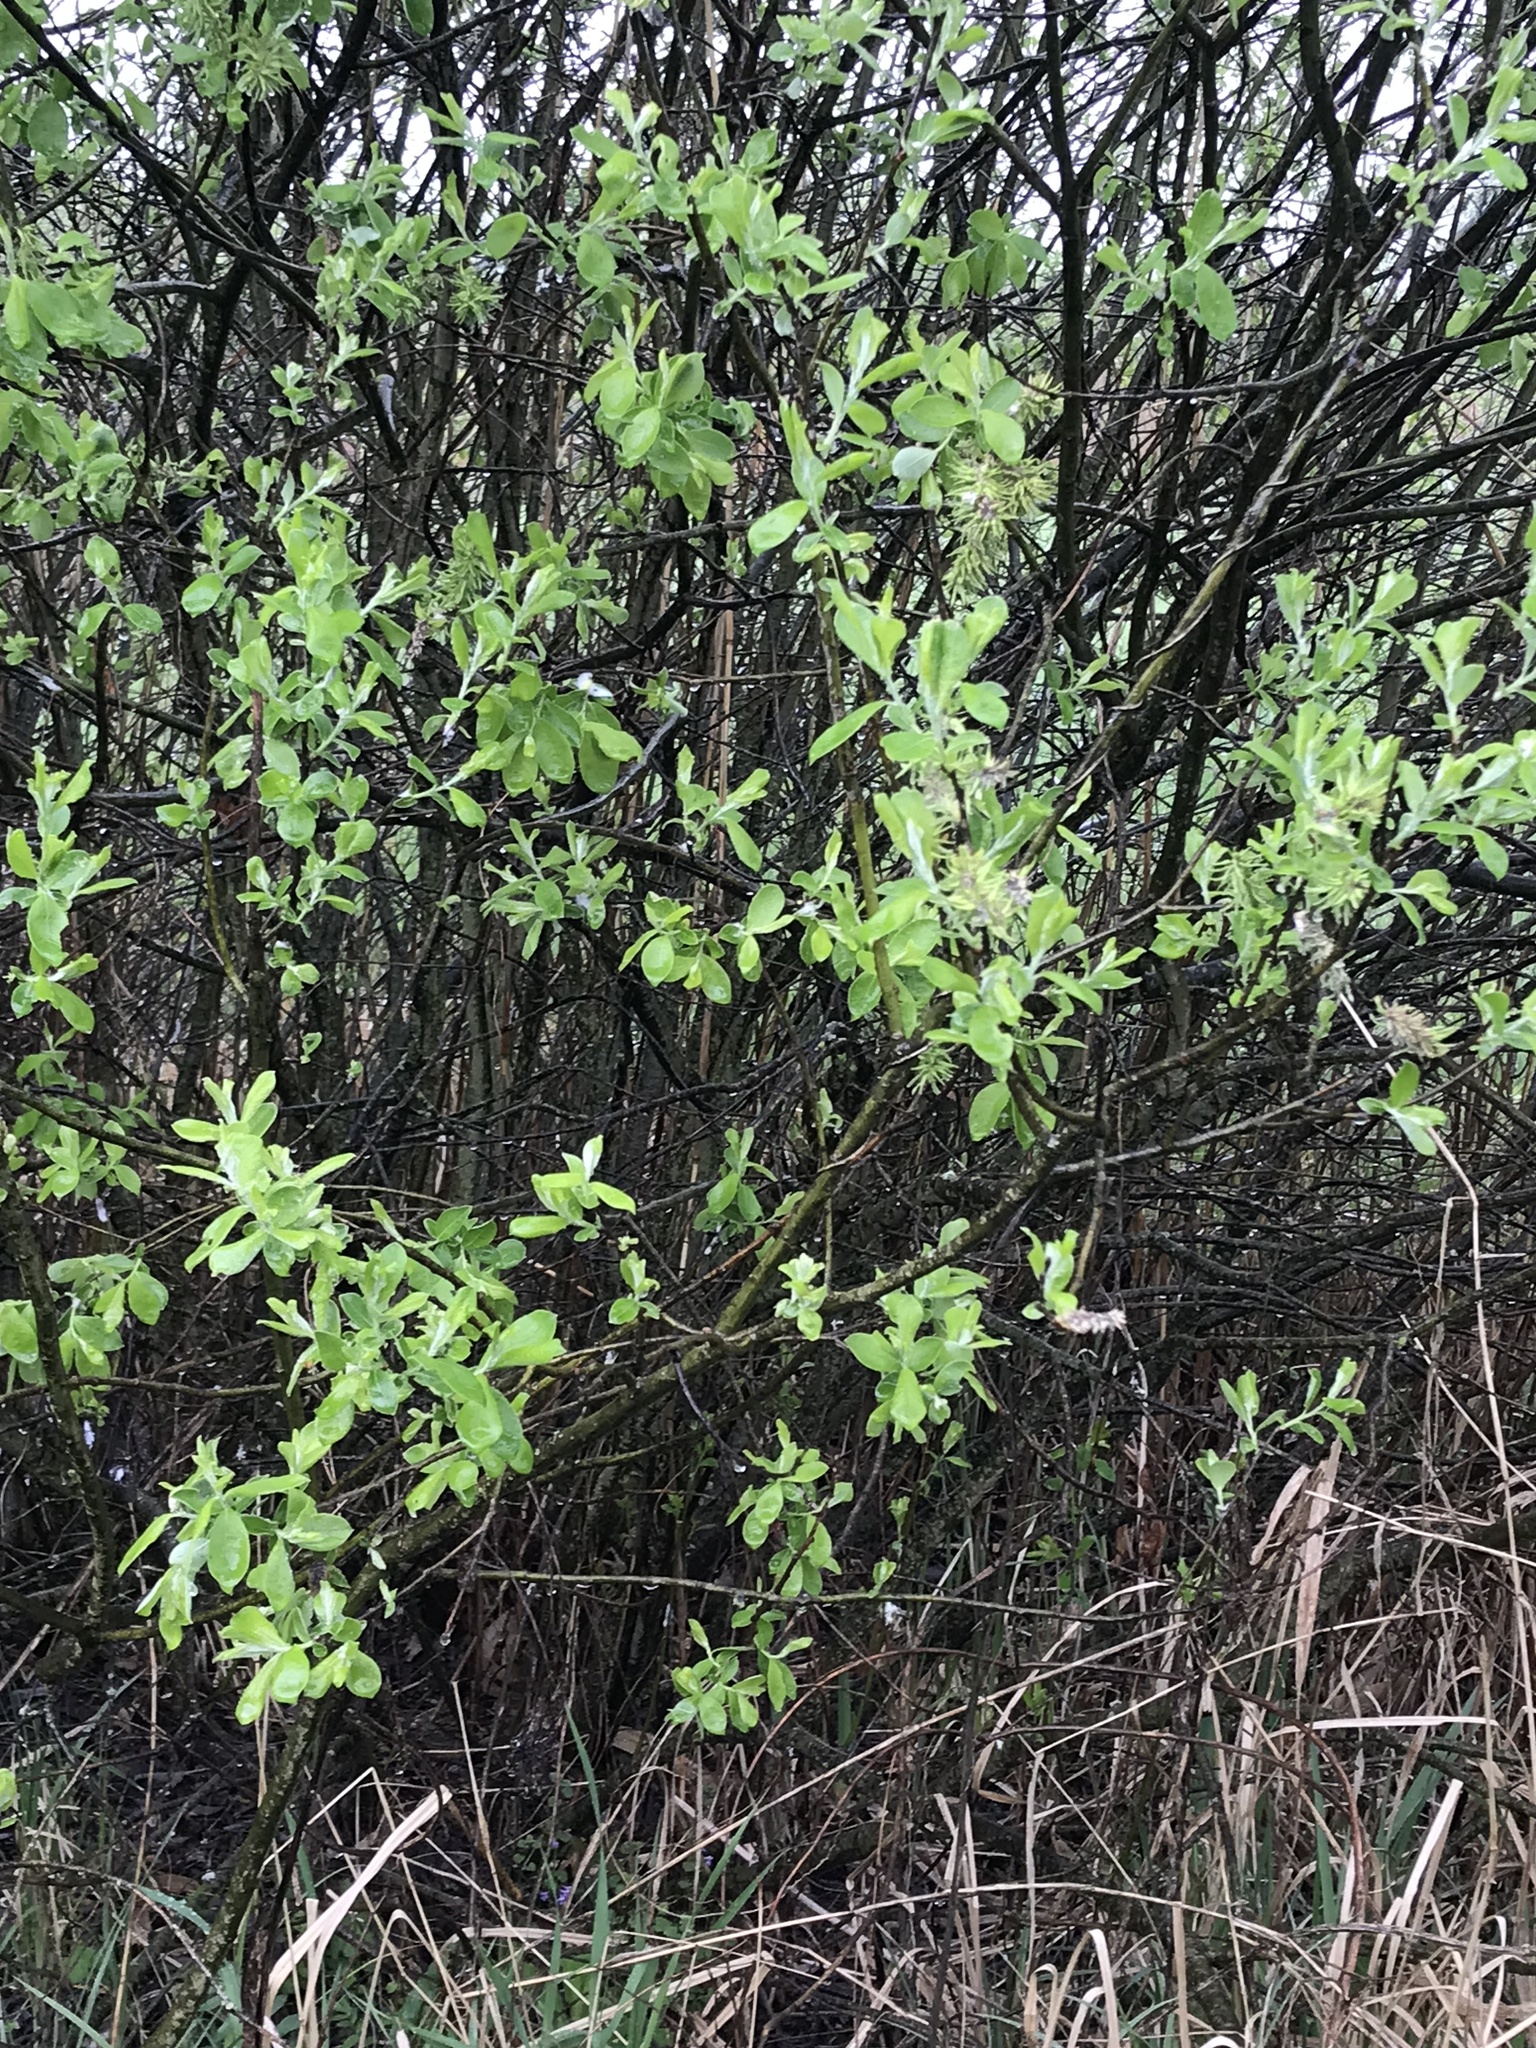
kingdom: Plantae
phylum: Tracheophyta
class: Magnoliopsida
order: Malpighiales
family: Salicaceae
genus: Salix
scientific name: Salix cinerea
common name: Common sallow
